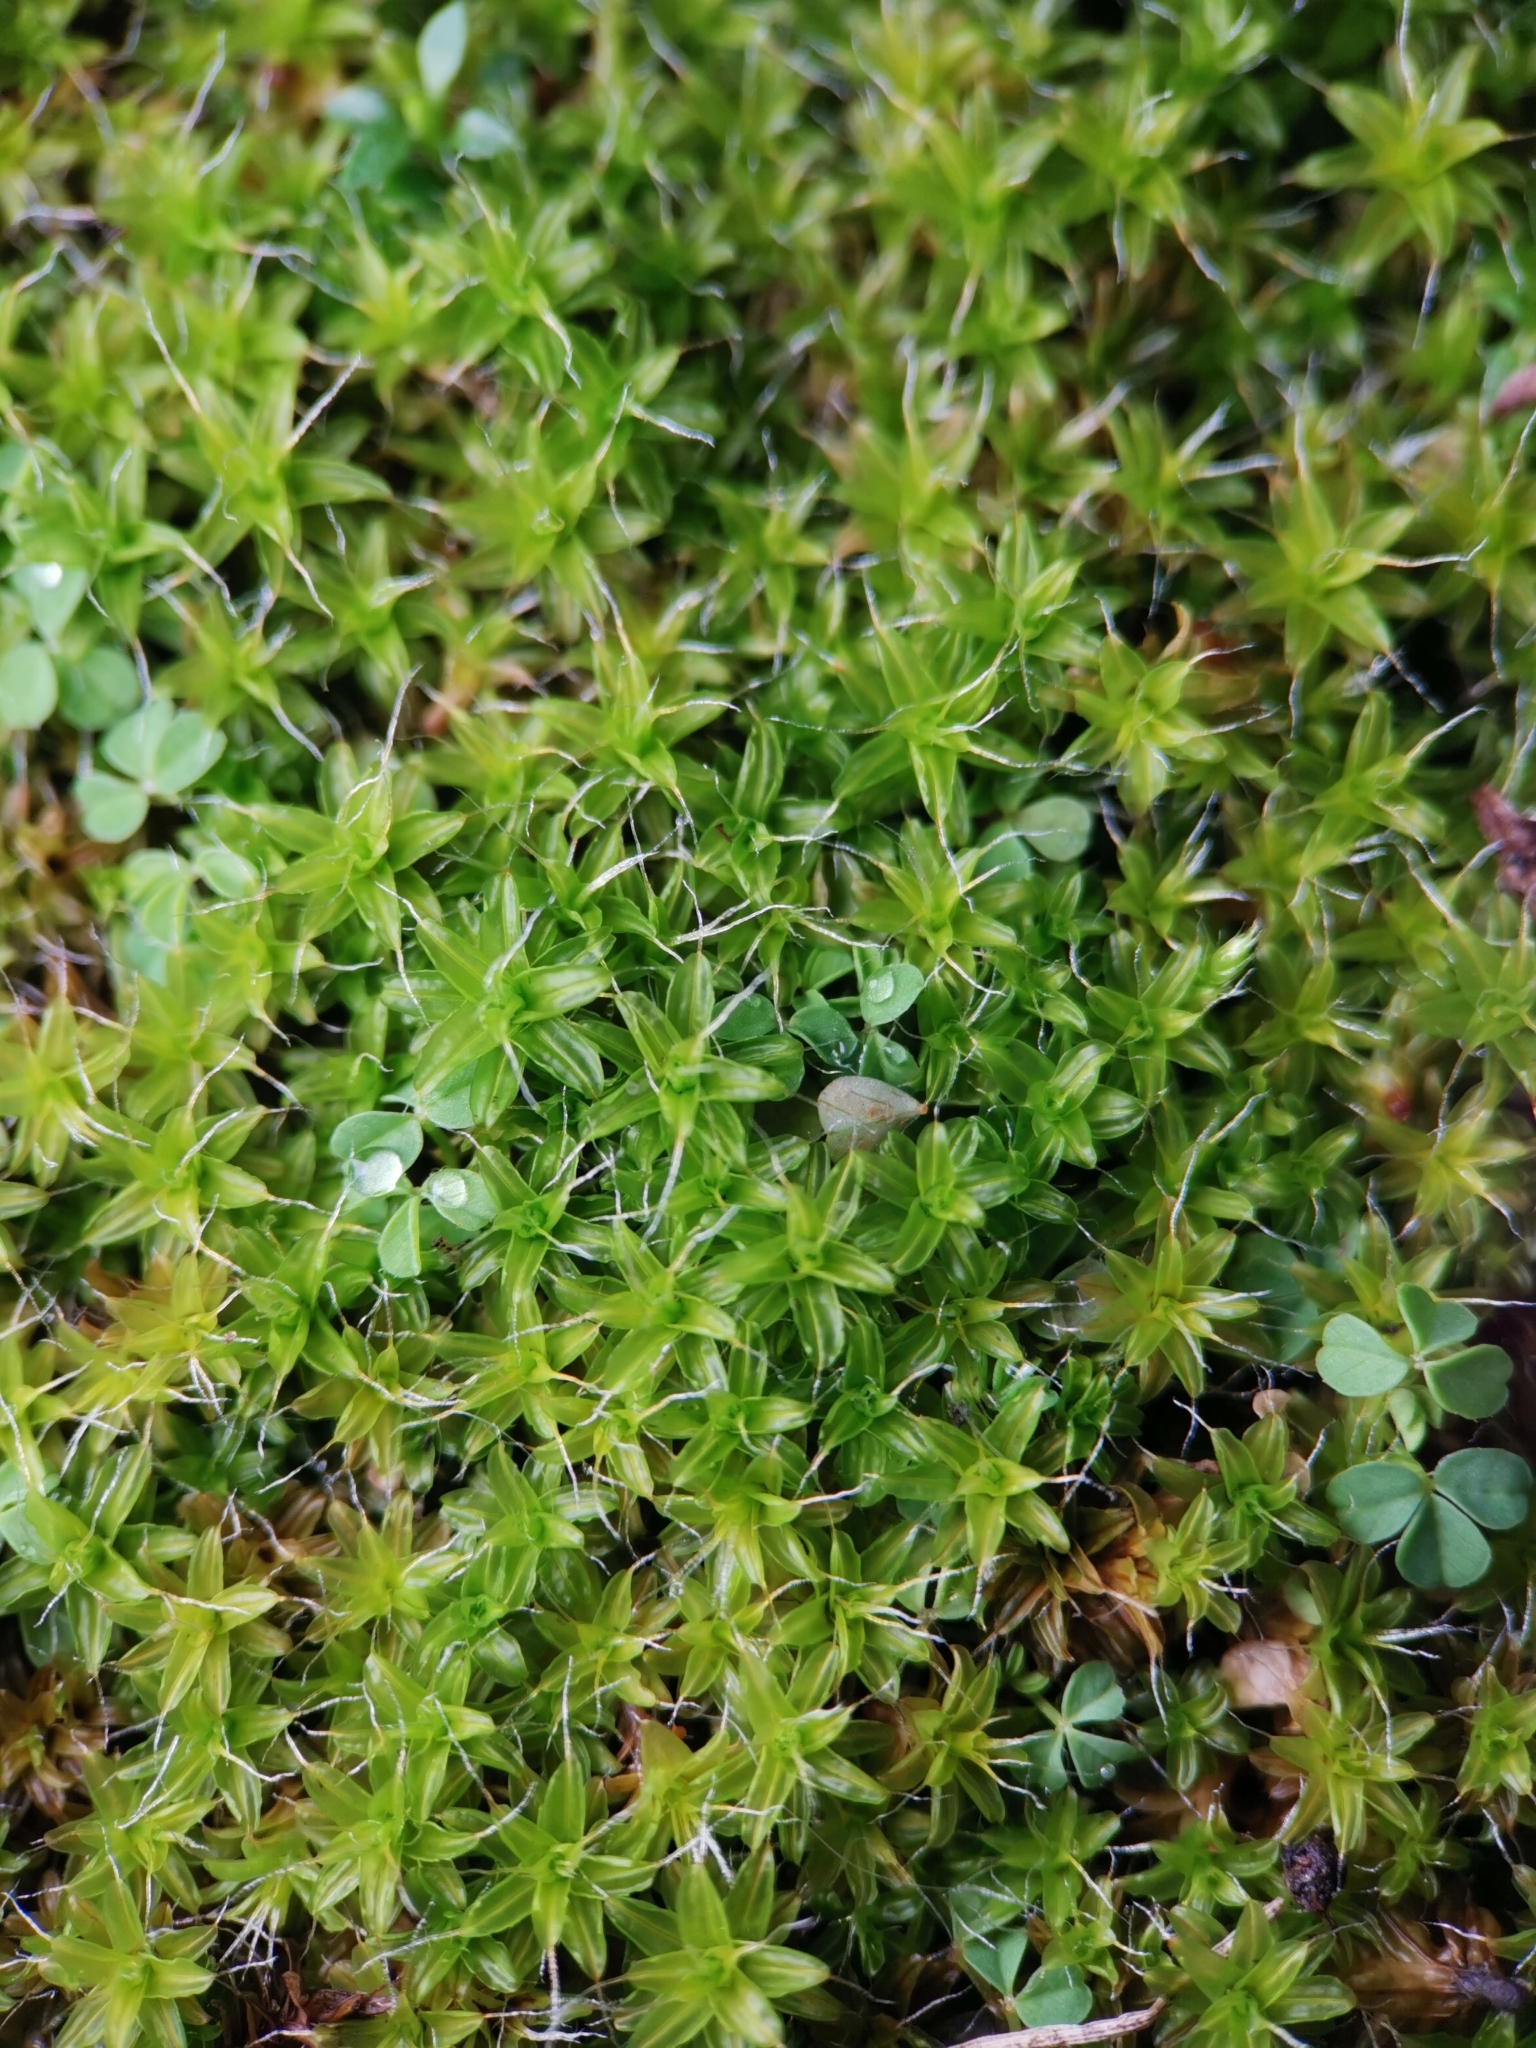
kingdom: Plantae
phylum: Bryophyta
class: Bryopsida
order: Pottiales
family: Pottiaceae
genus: Syntrichia
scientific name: Syntrichia ruralis
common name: Sidewalk screw moss
